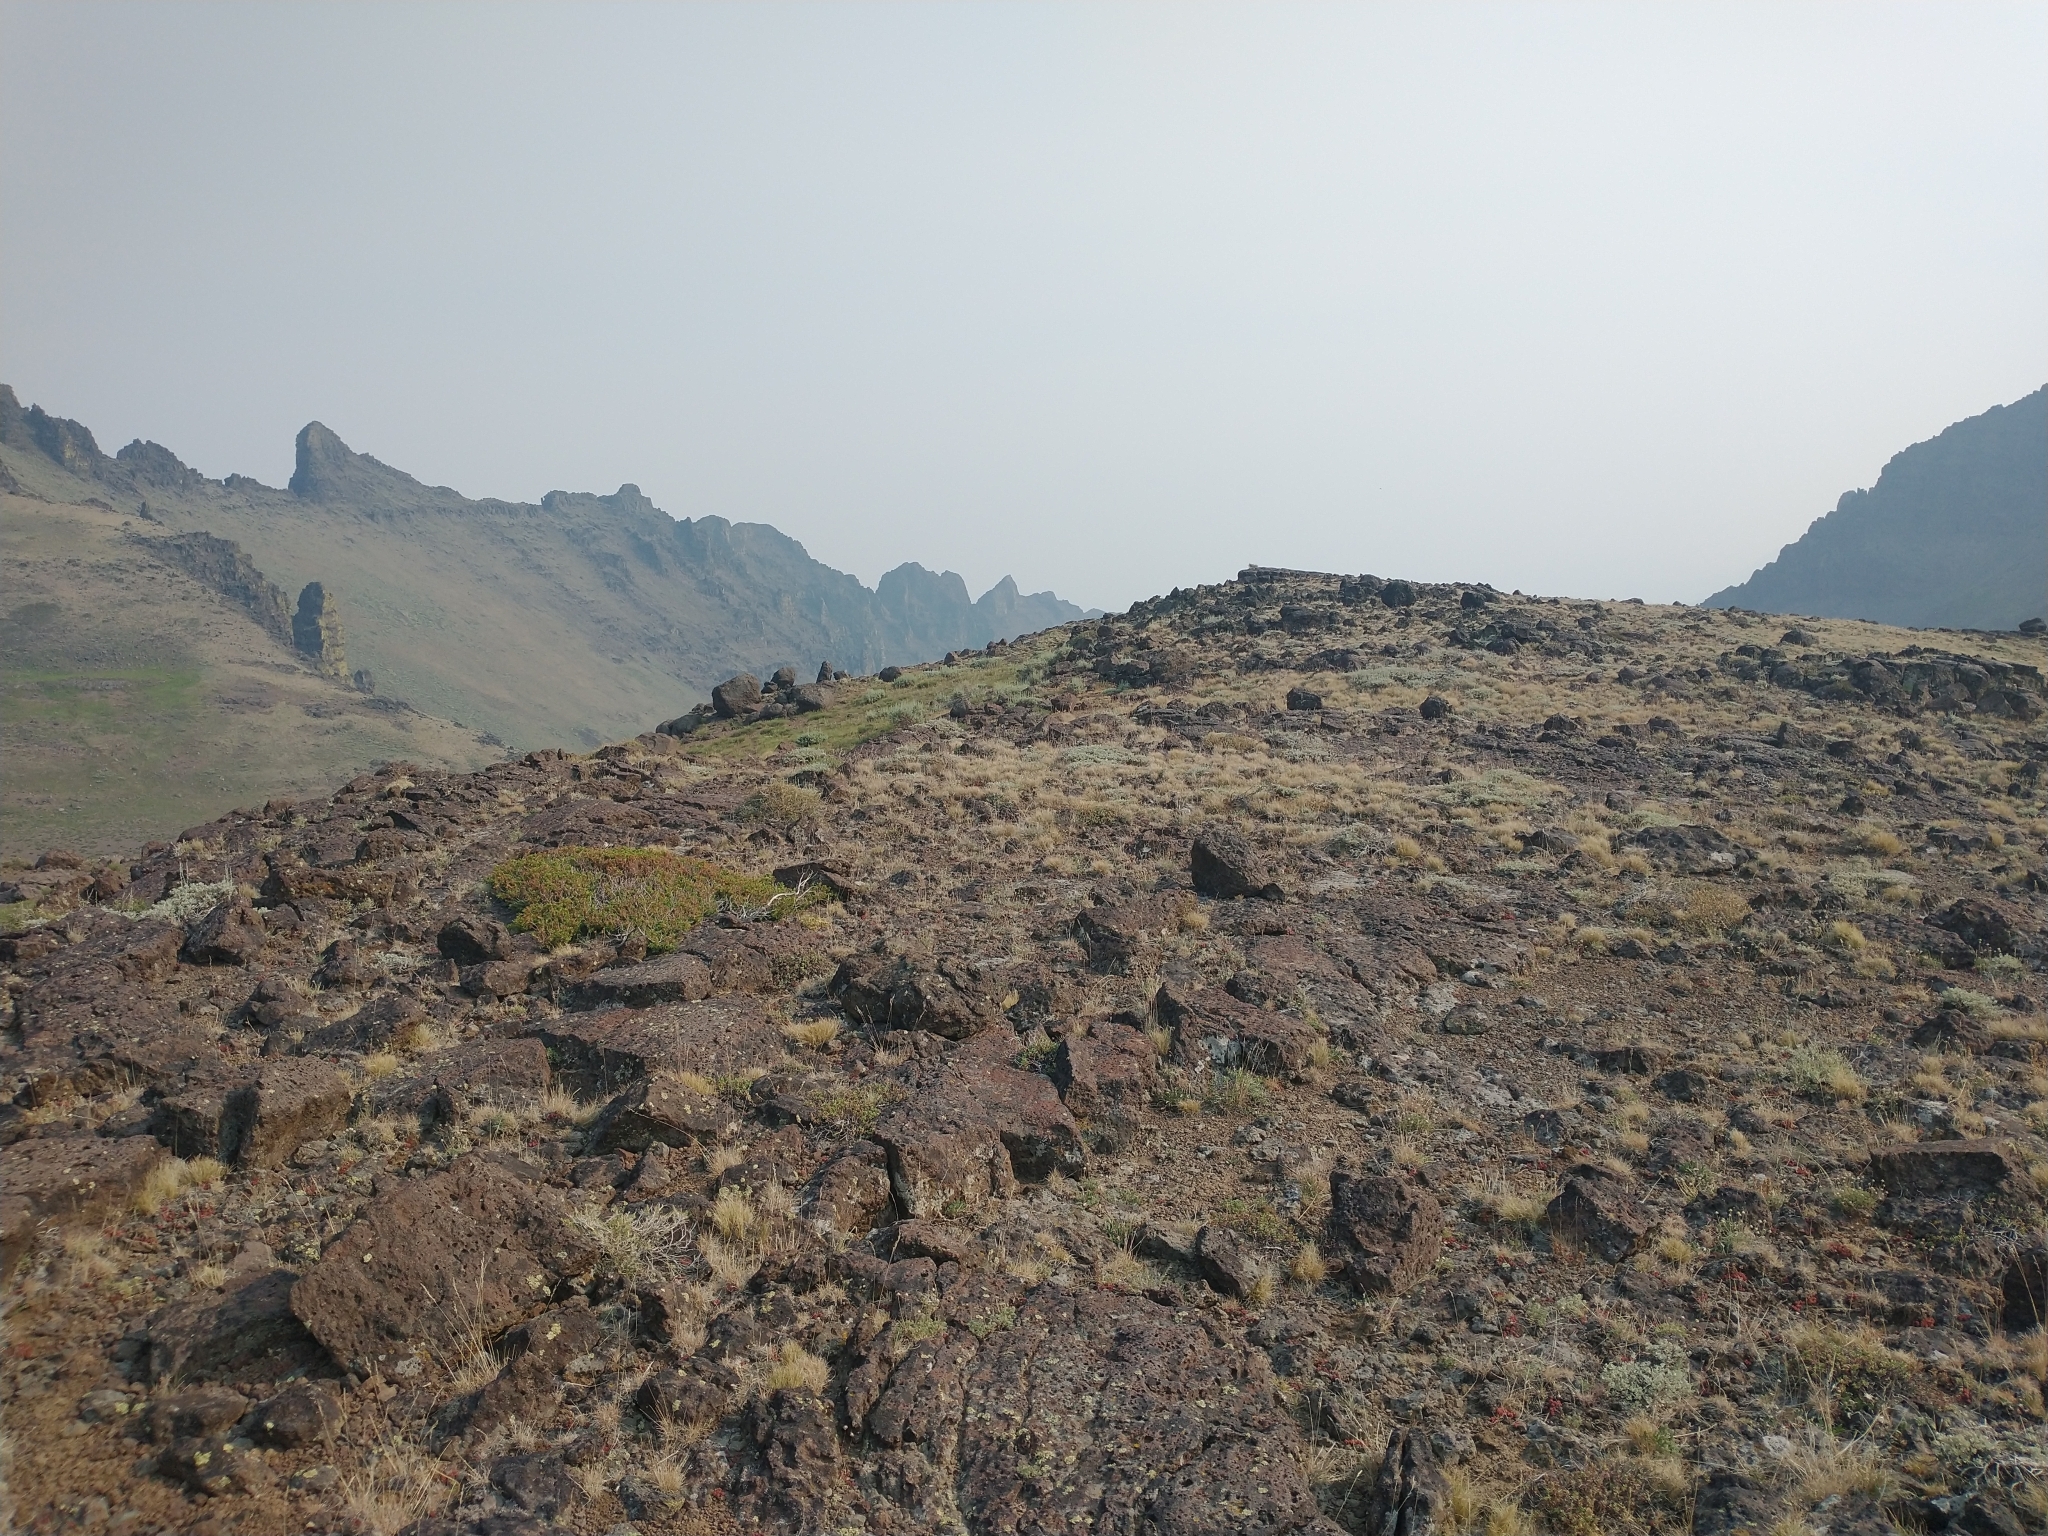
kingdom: Plantae
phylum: Tracheophyta
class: Pinopsida
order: Pinales
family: Cupressaceae
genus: Juniperus
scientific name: Juniperus communis
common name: Common juniper
